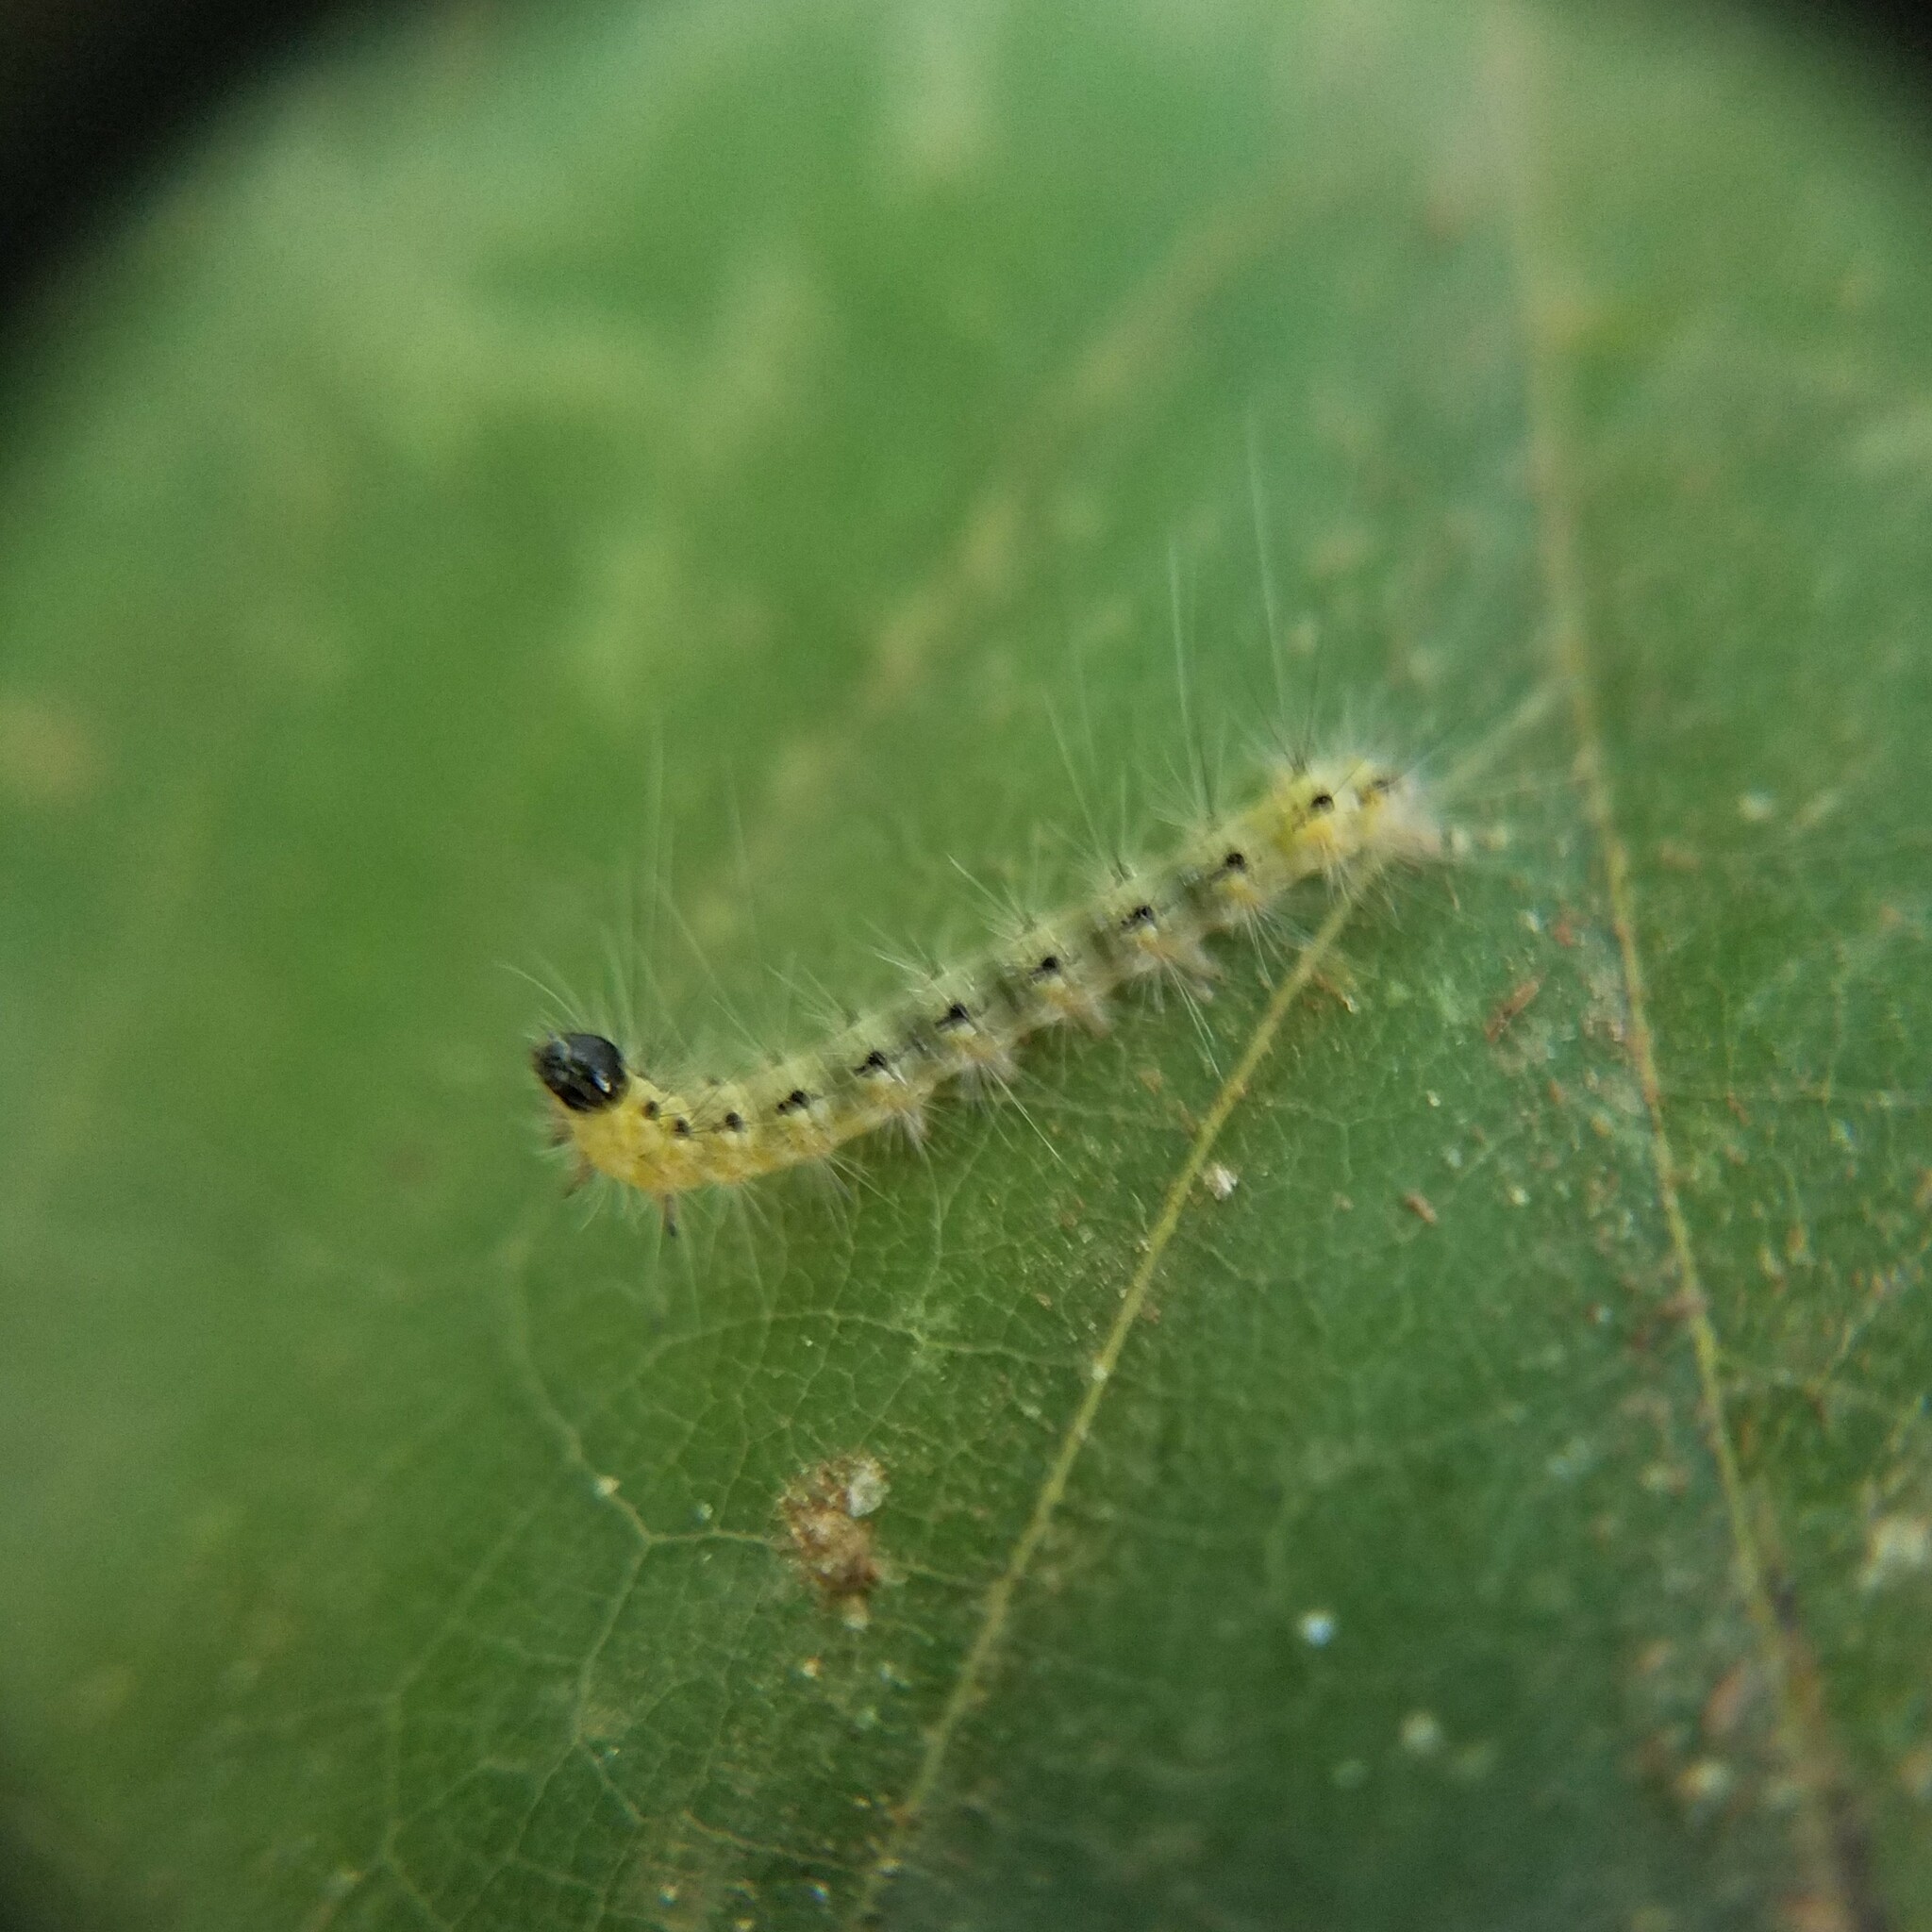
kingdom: Animalia
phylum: Arthropoda
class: Insecta
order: Lepidoptera
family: Erebidae
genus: Hyphantria
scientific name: Hyphantria cunea
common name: American white moth
